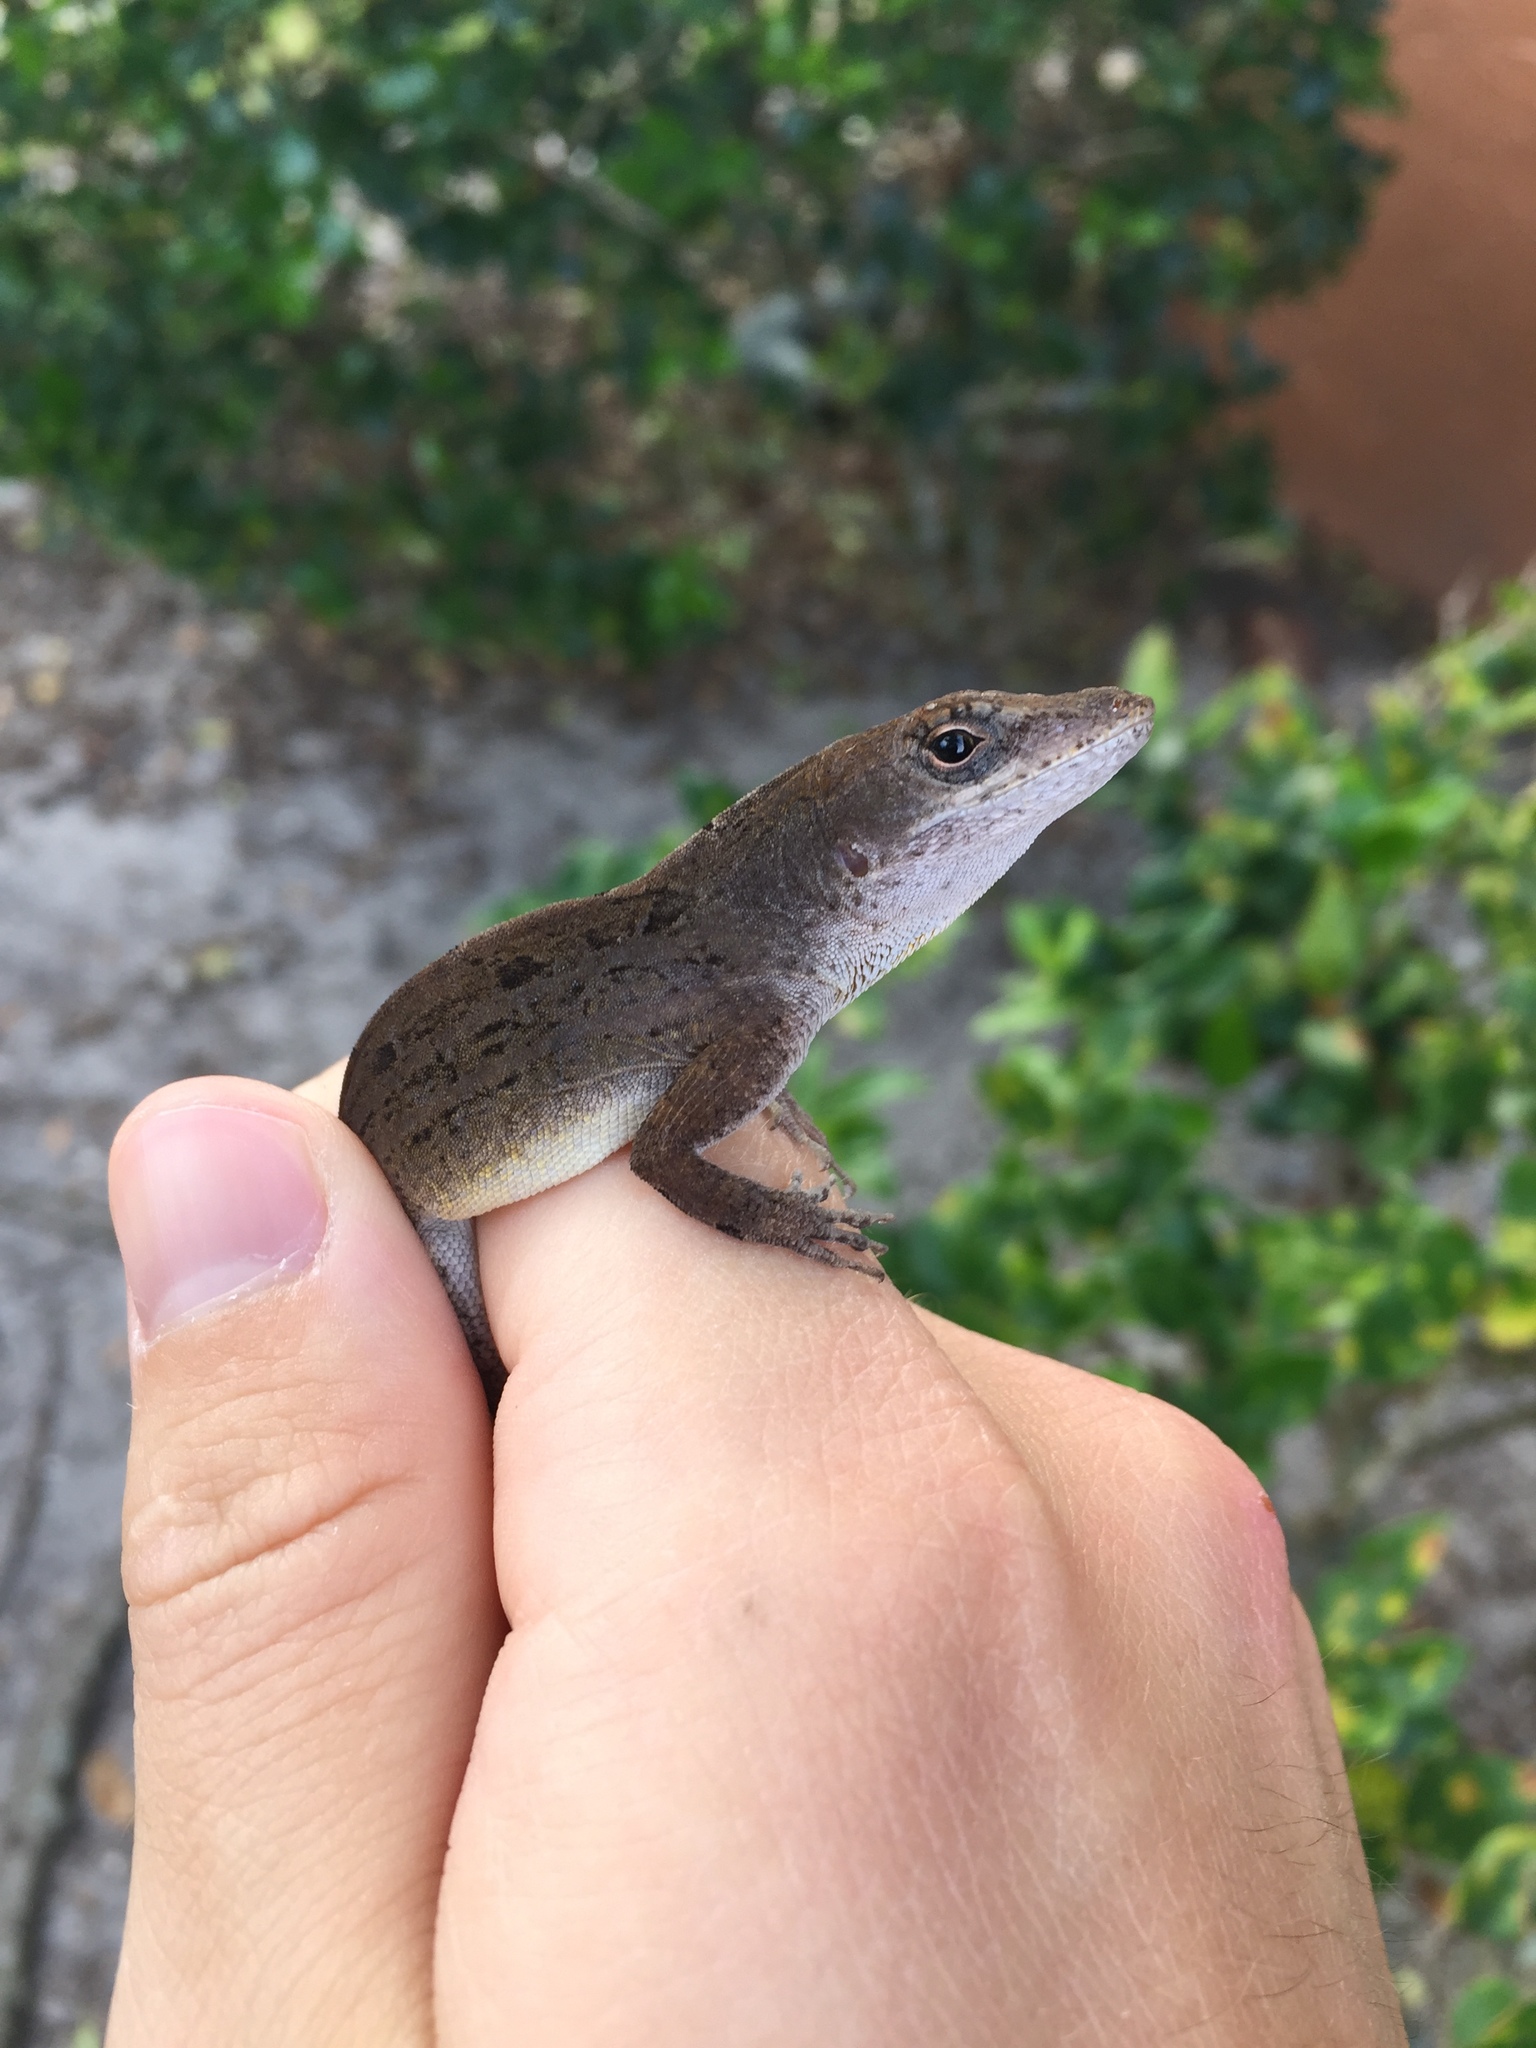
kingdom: Animalia
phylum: Chordata
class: Squamata
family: Dactyloidae
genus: Anolis
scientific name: Anolis sagrei
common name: Brown anole
